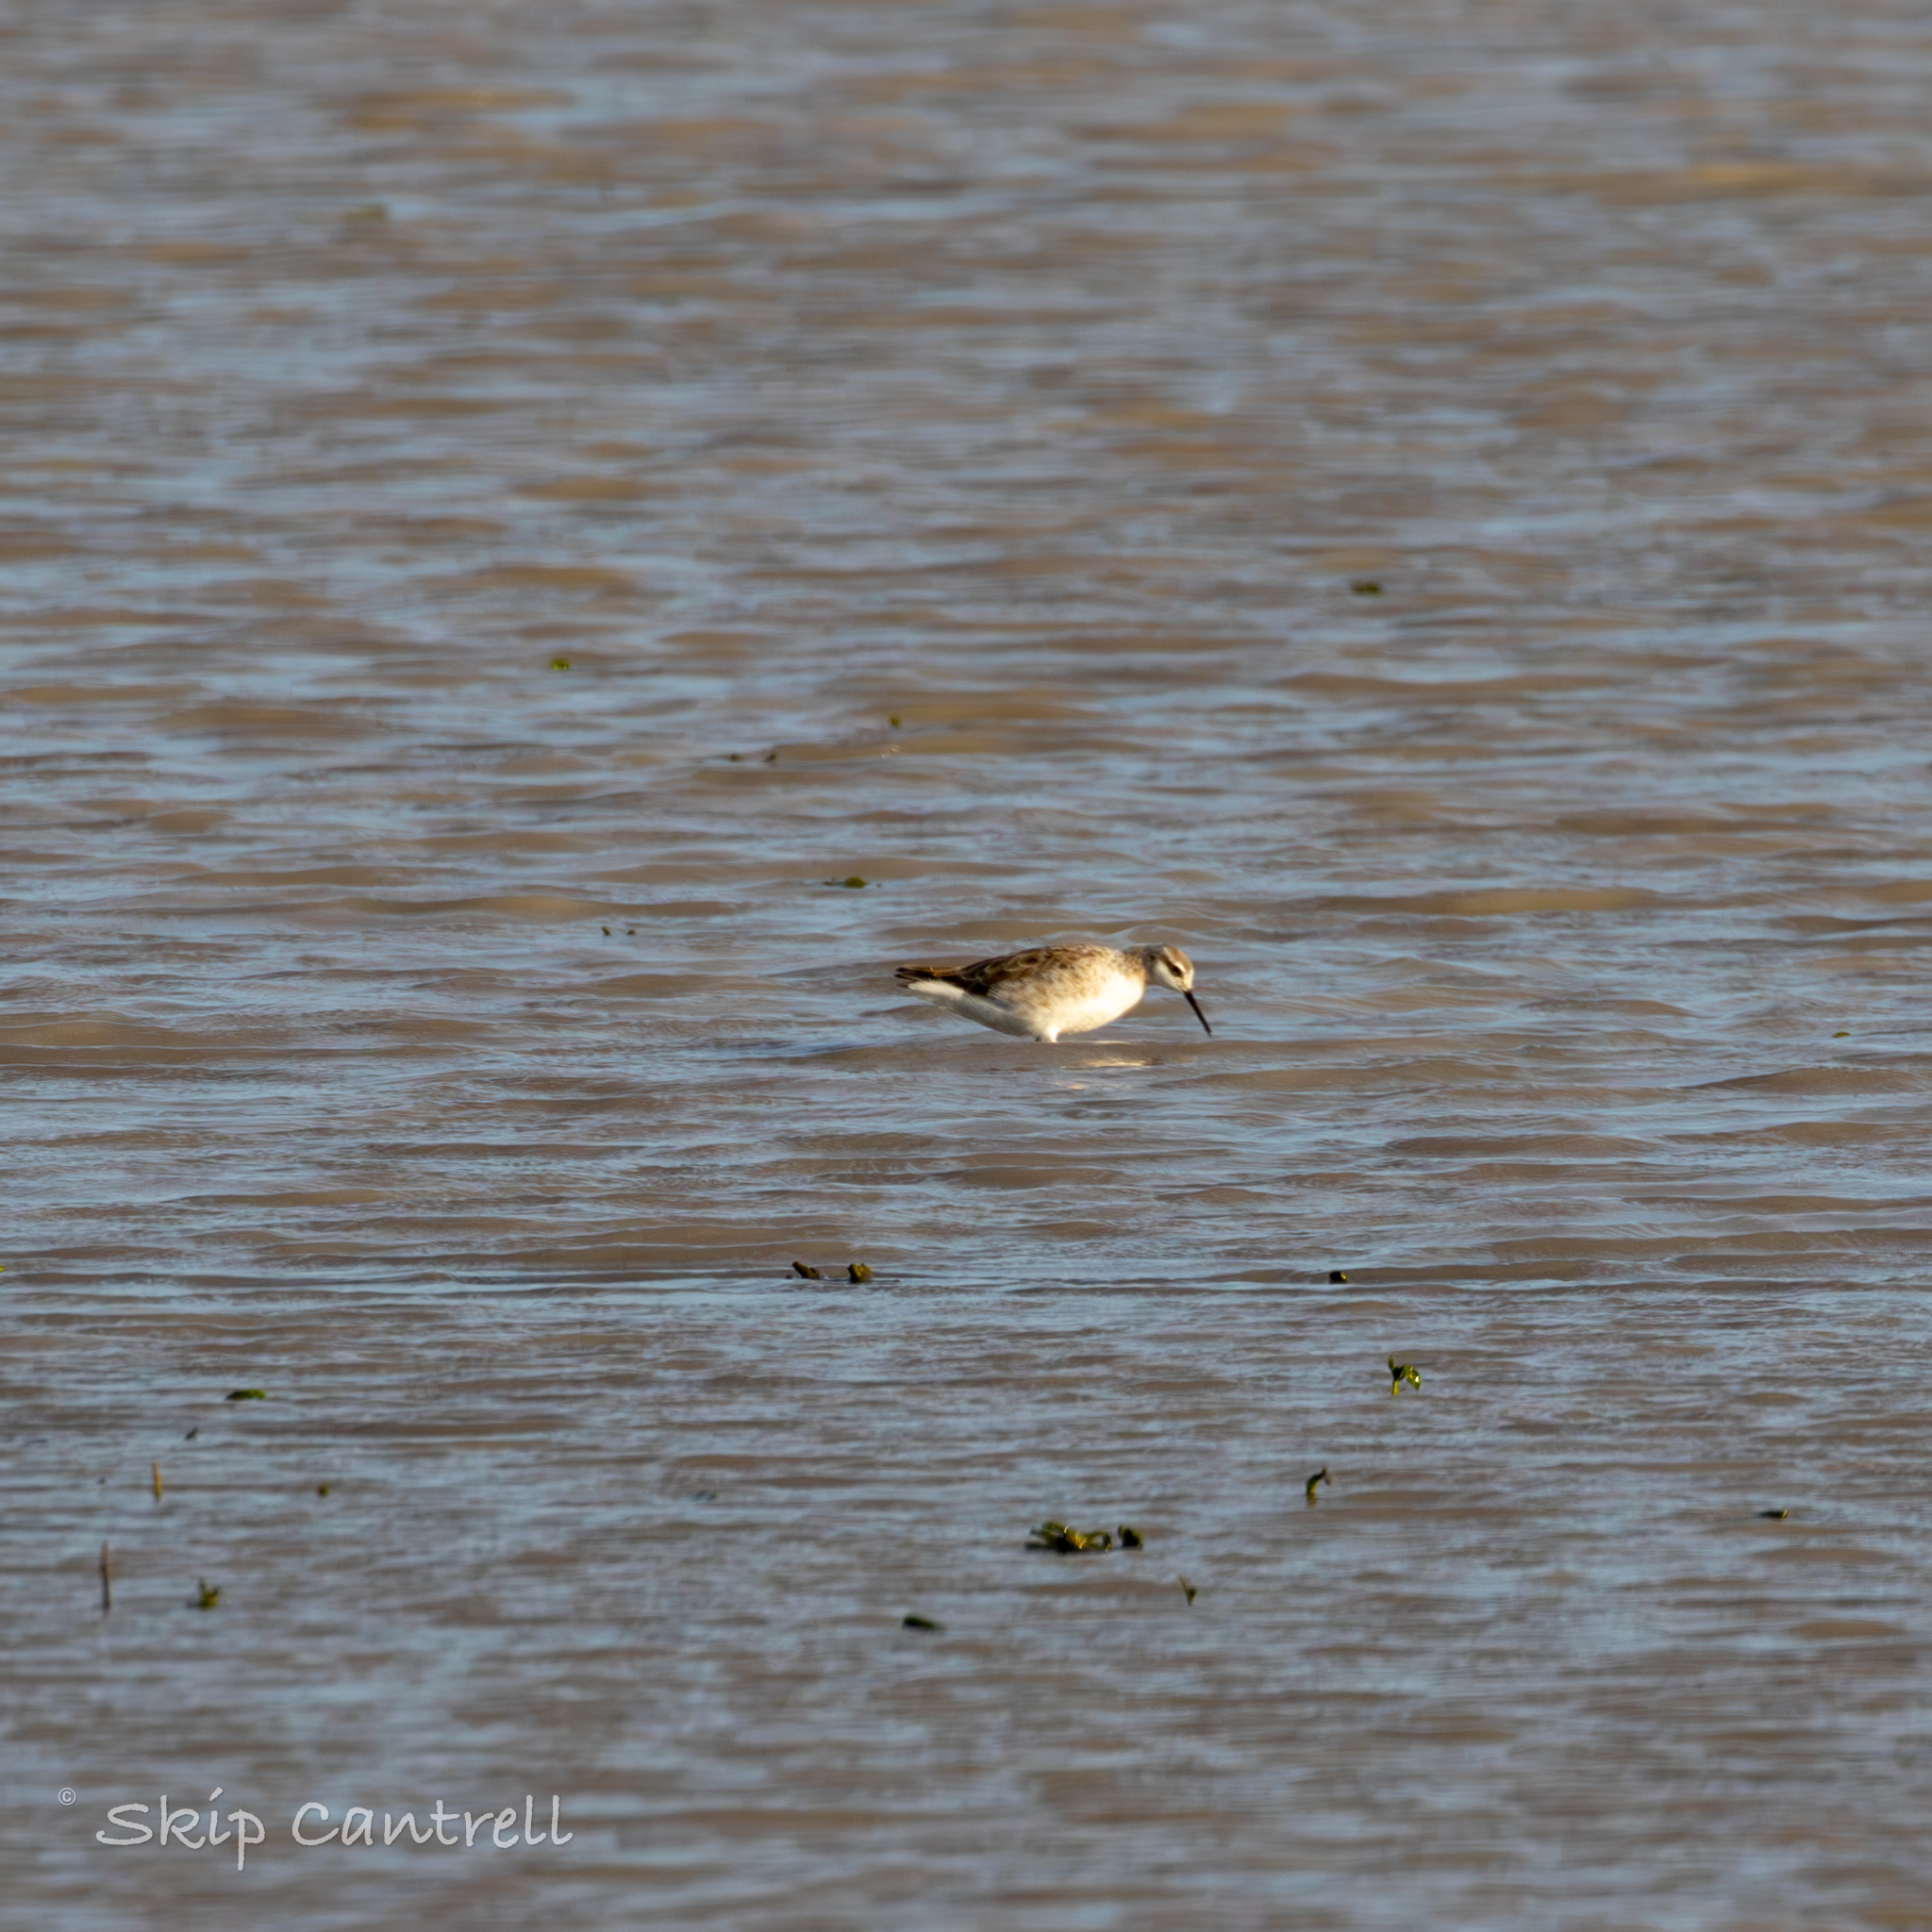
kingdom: Animalia
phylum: Chordata
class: Aves
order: Charadriiformes
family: Scolopacidae
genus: Phalaropus
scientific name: Phalaropus tricolor
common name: Wilson's phalarope
